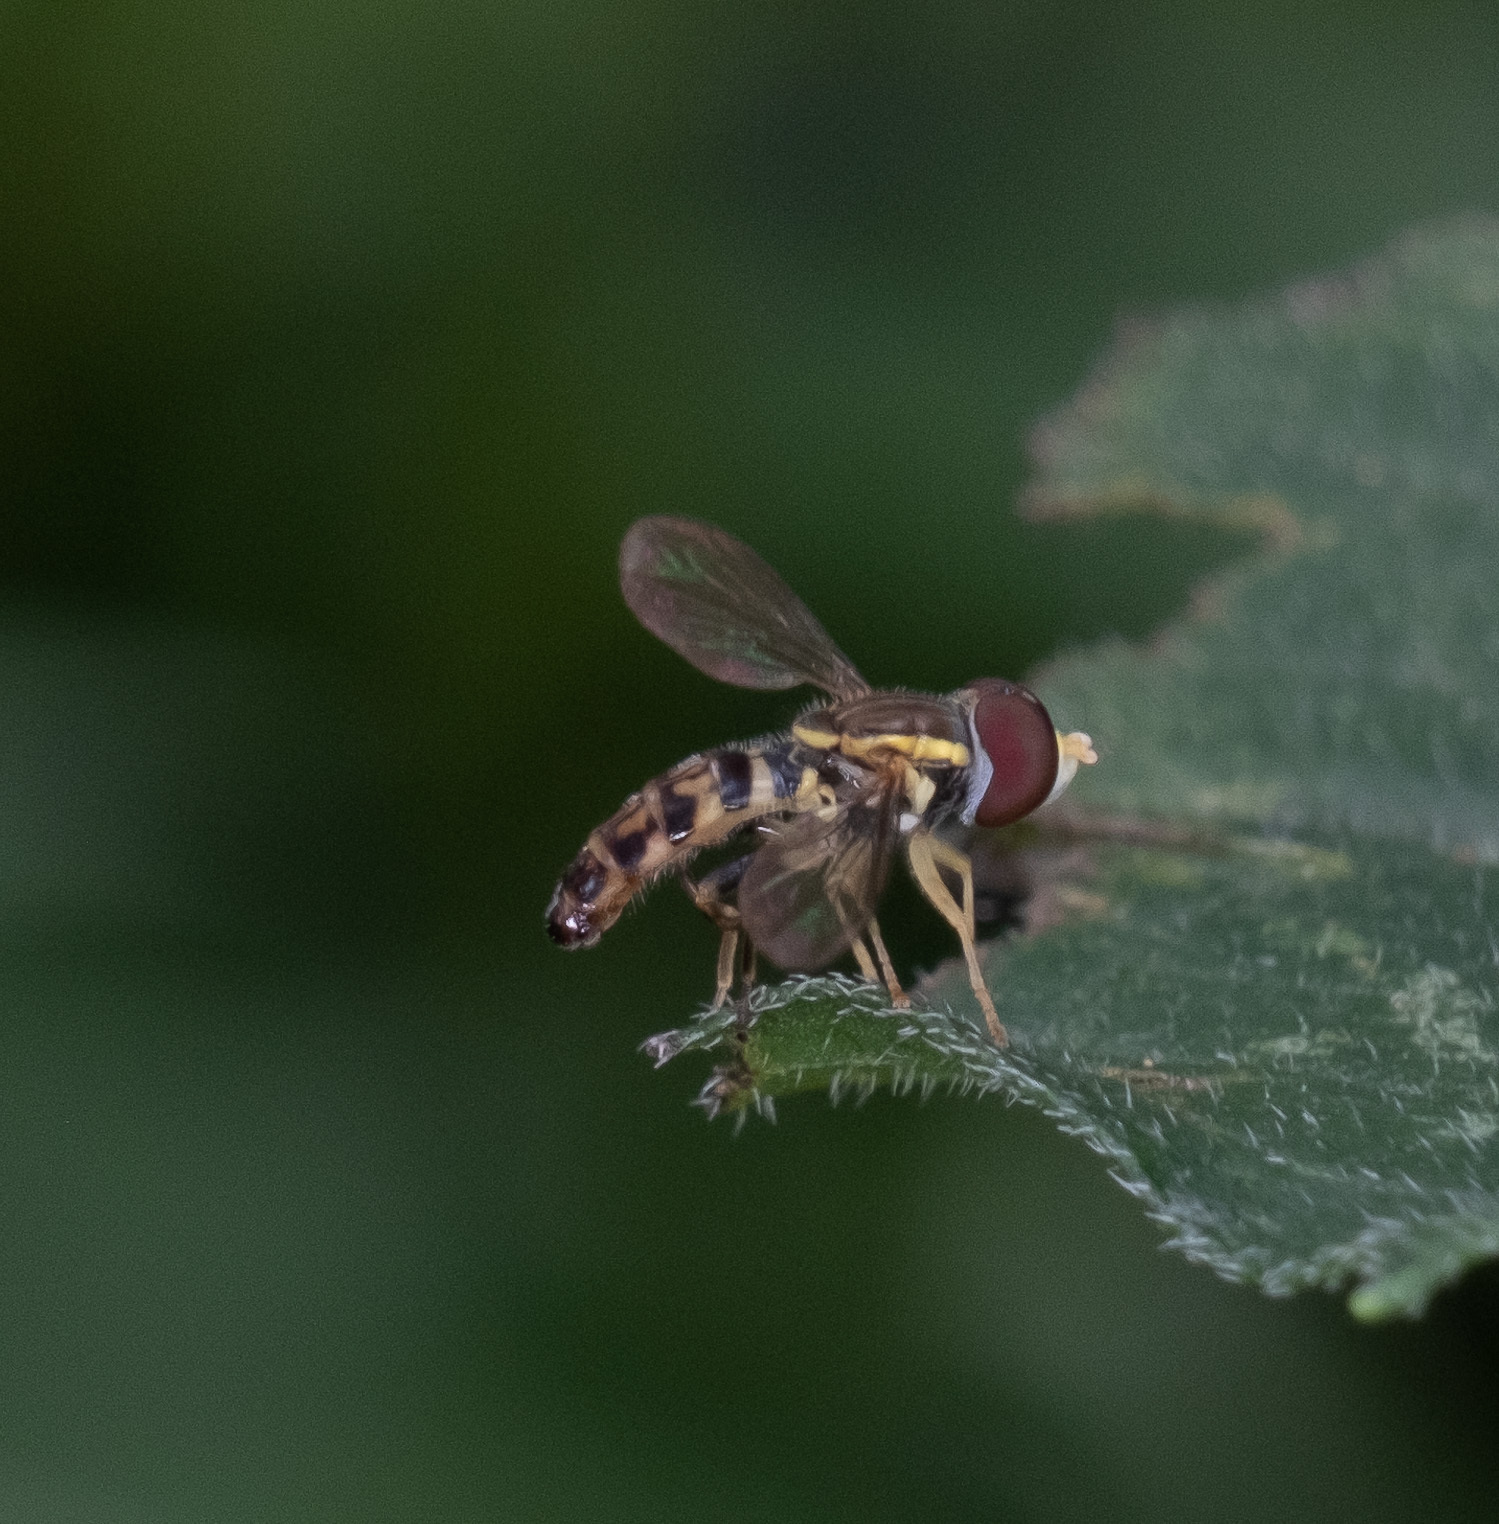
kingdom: Animalia
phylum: Arthropoda
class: Insecta
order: Diptera
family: Syrphidae
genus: Toxomerus
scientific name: Toxomerus geminatus
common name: Eastern calligrapher
